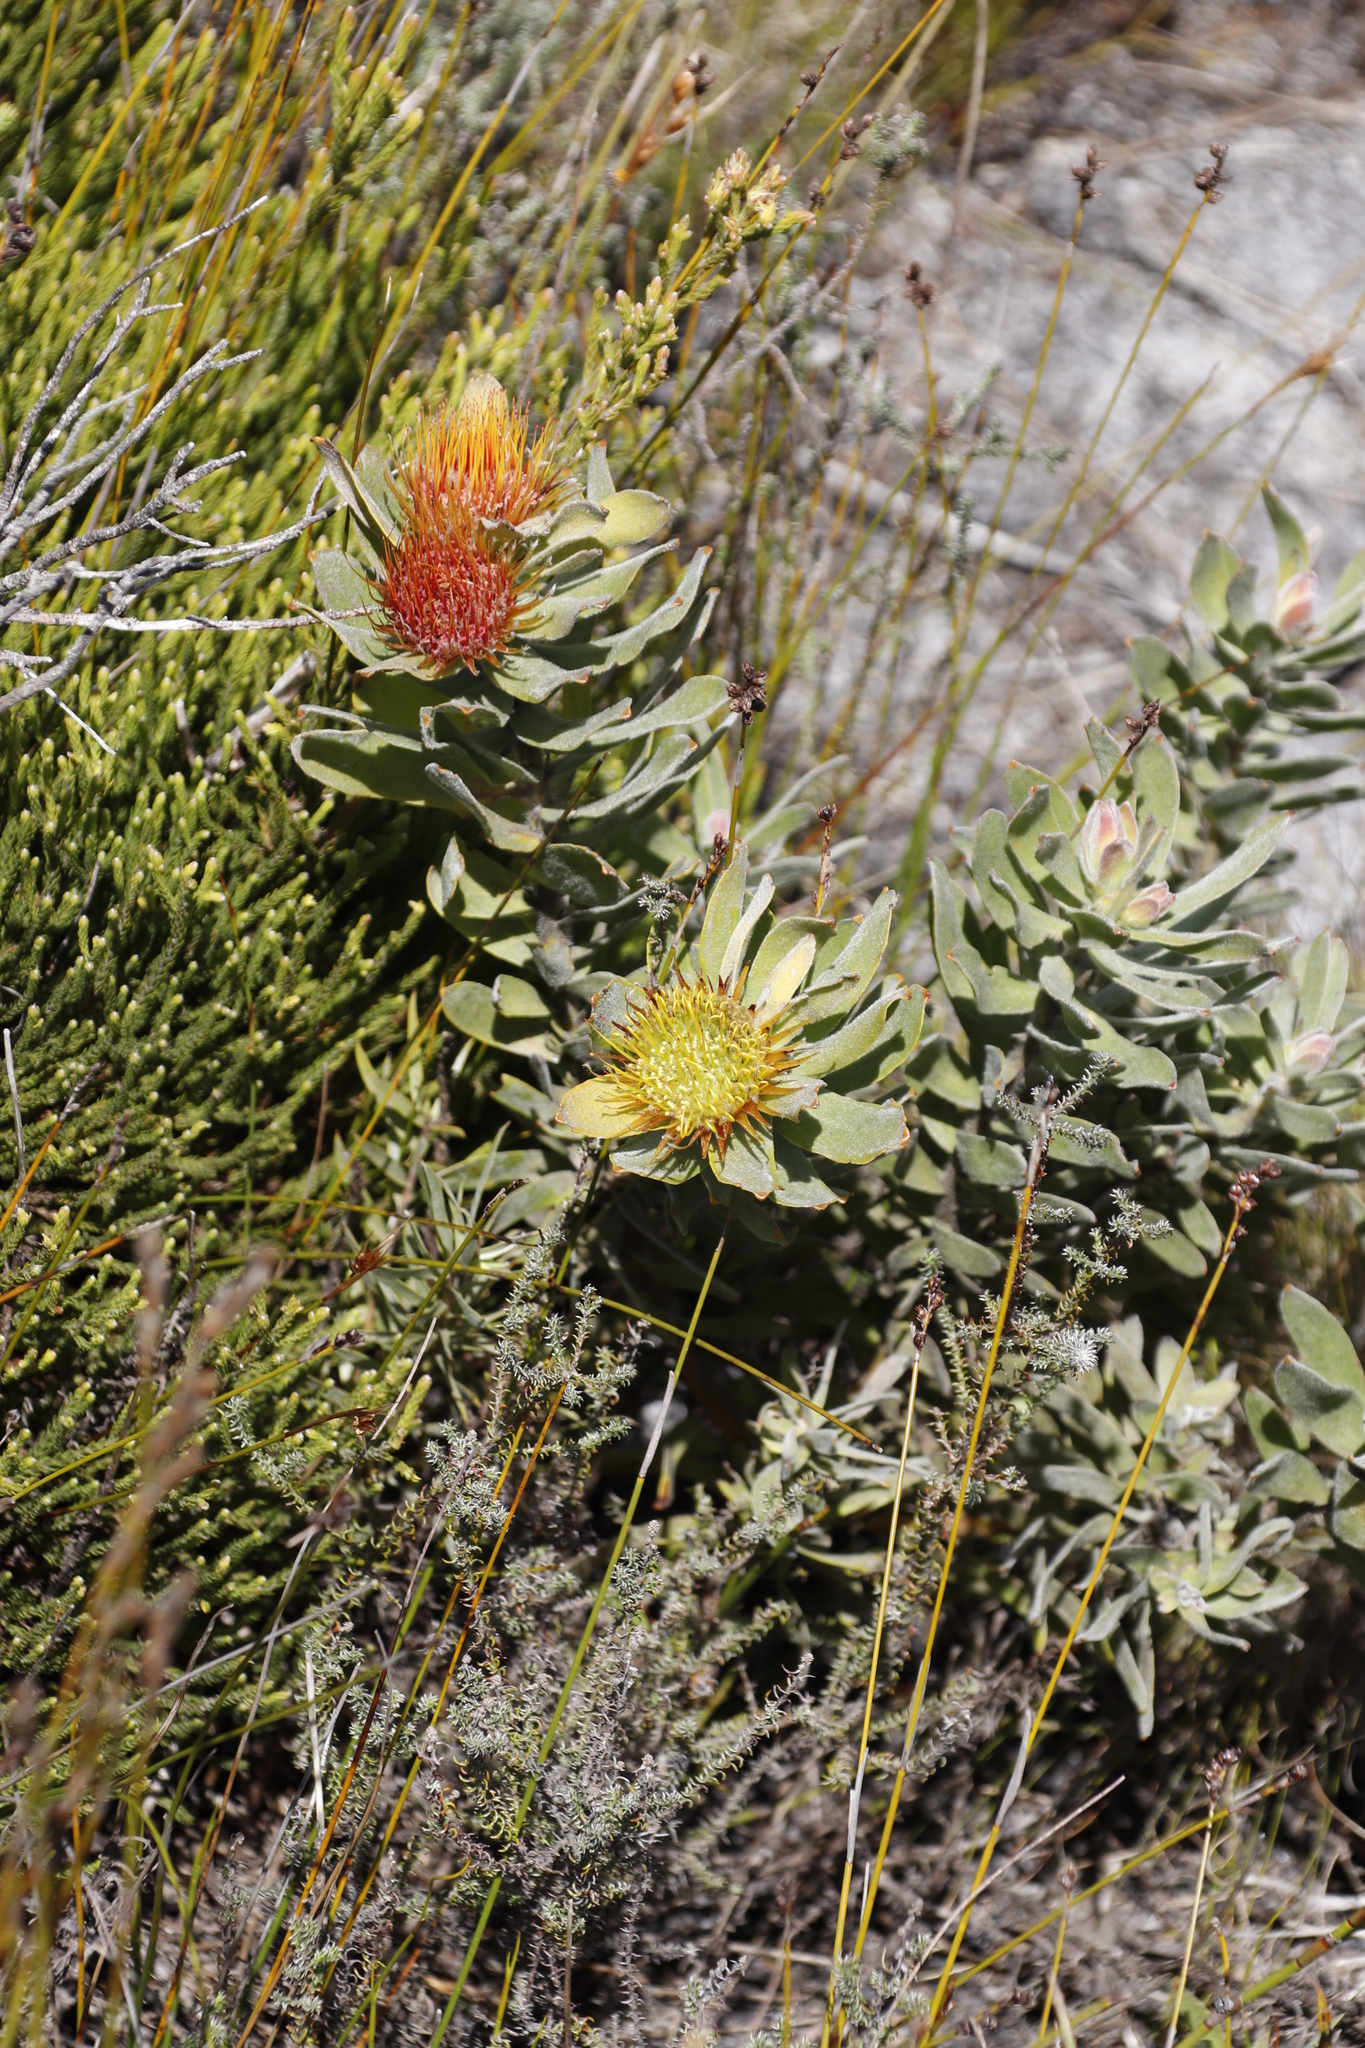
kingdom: Plantae
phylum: Tracheophyta
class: Magnoliopsida
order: Proteales
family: Proteaceae
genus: Leucospermum
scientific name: Leucospermum oleifolium
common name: Matches
